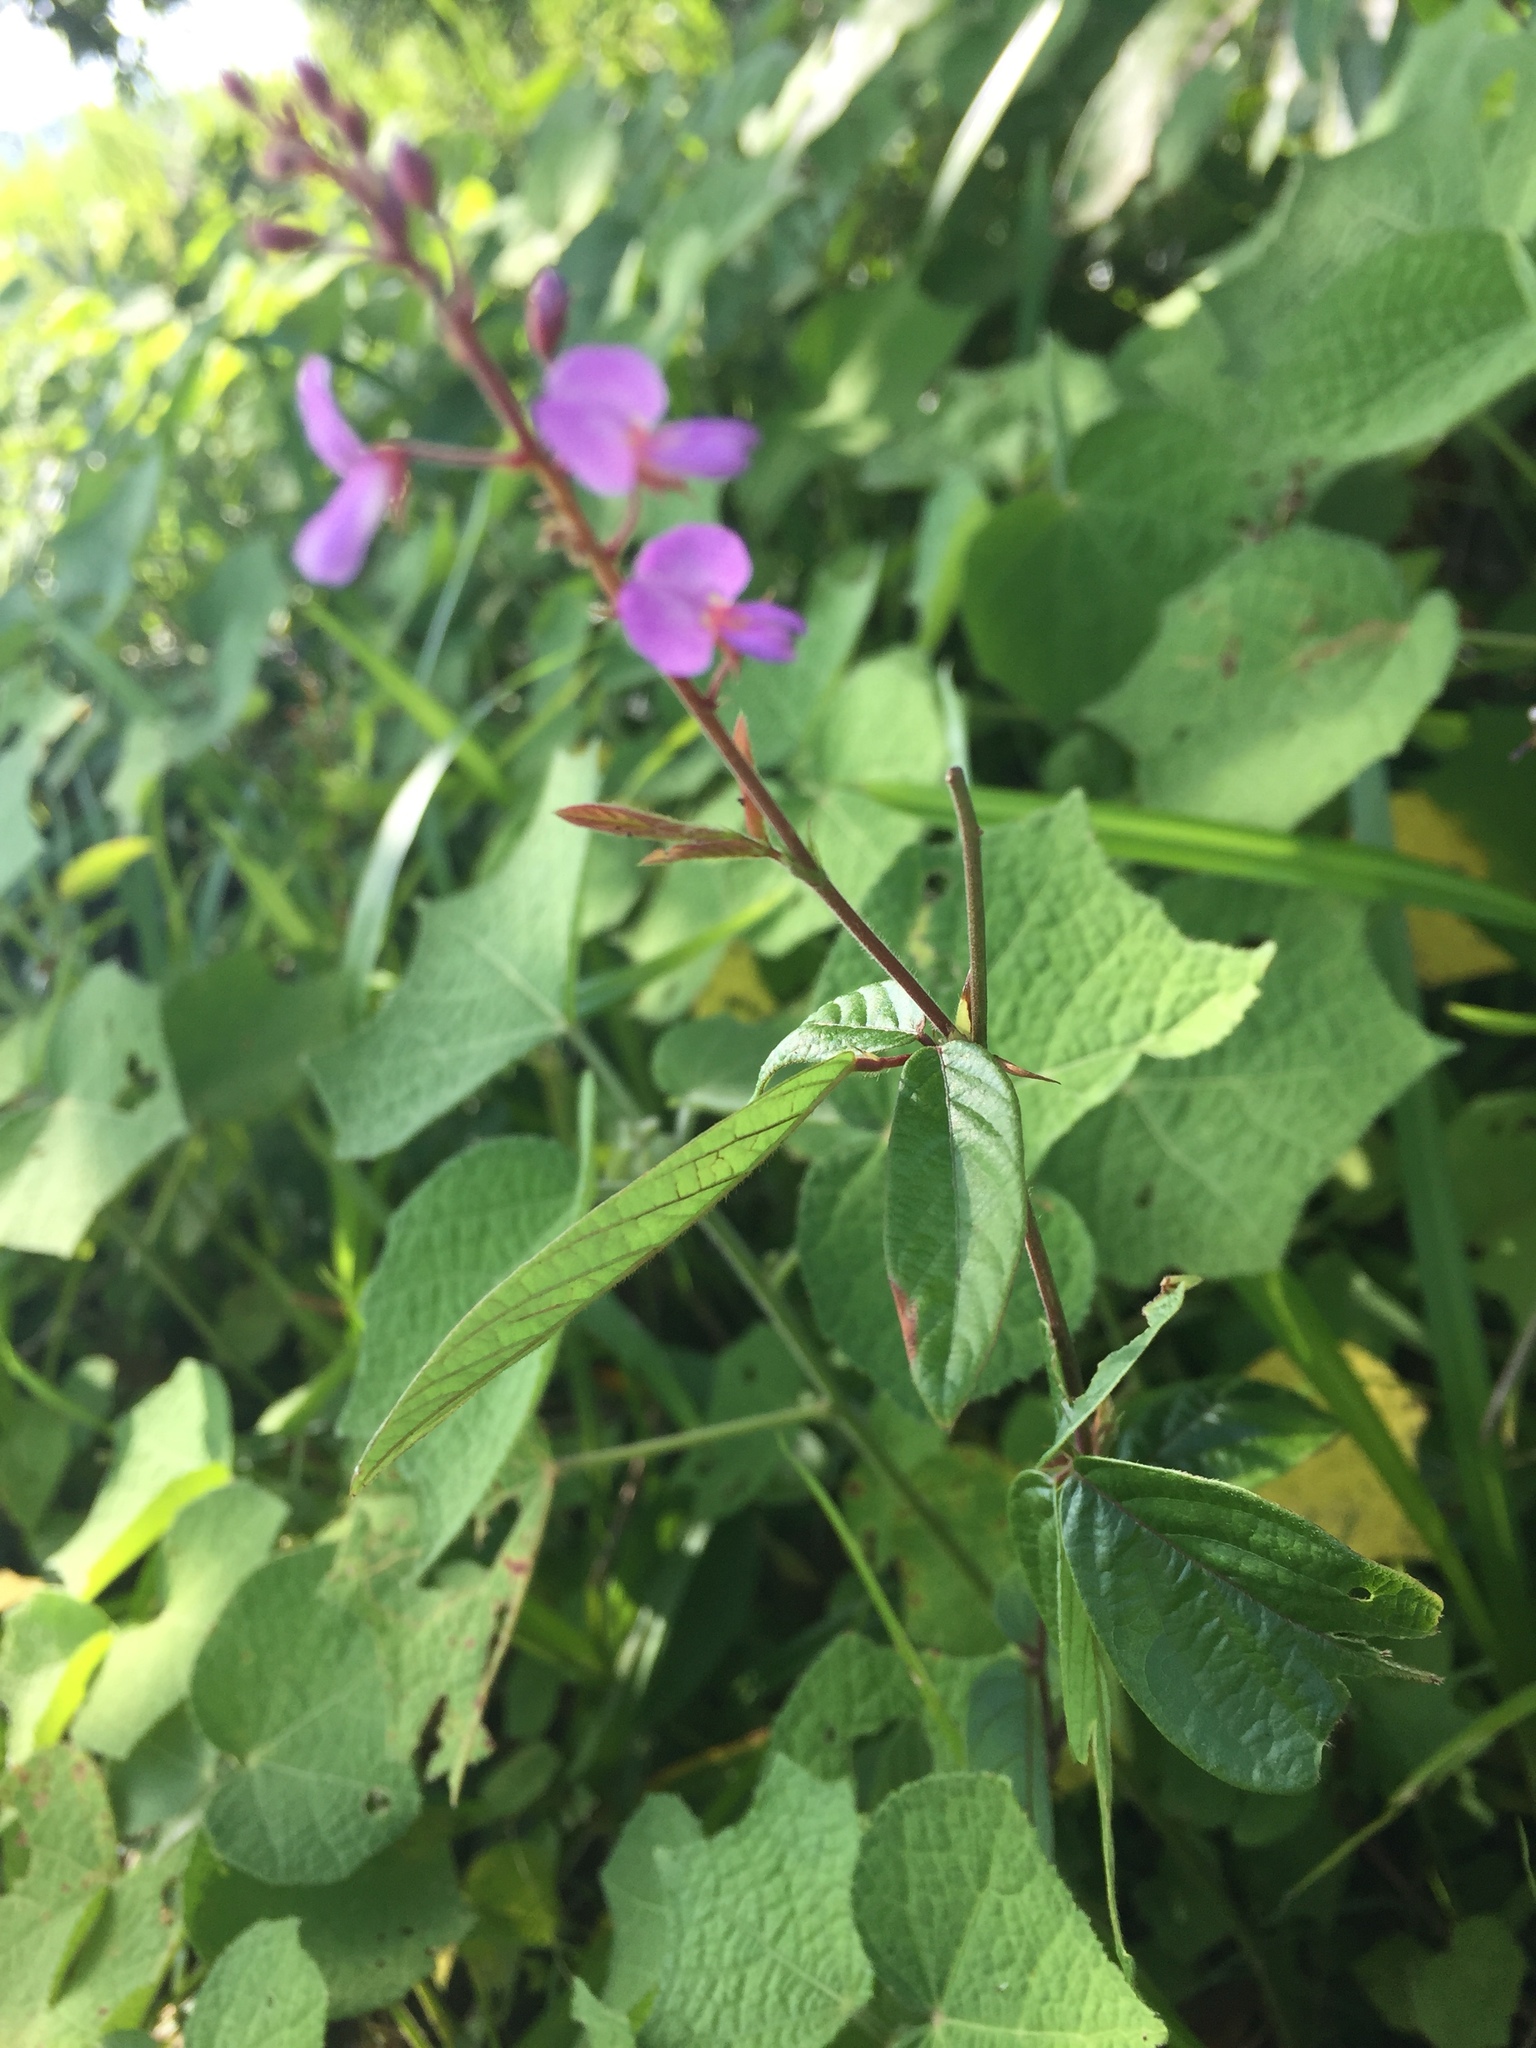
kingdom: Plantae
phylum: Tracheophyta
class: Magnoliopsida
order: Fabales
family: Fabaceae
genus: Desmodium
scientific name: Desmodium paniculatum
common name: Panicled tick-clover
